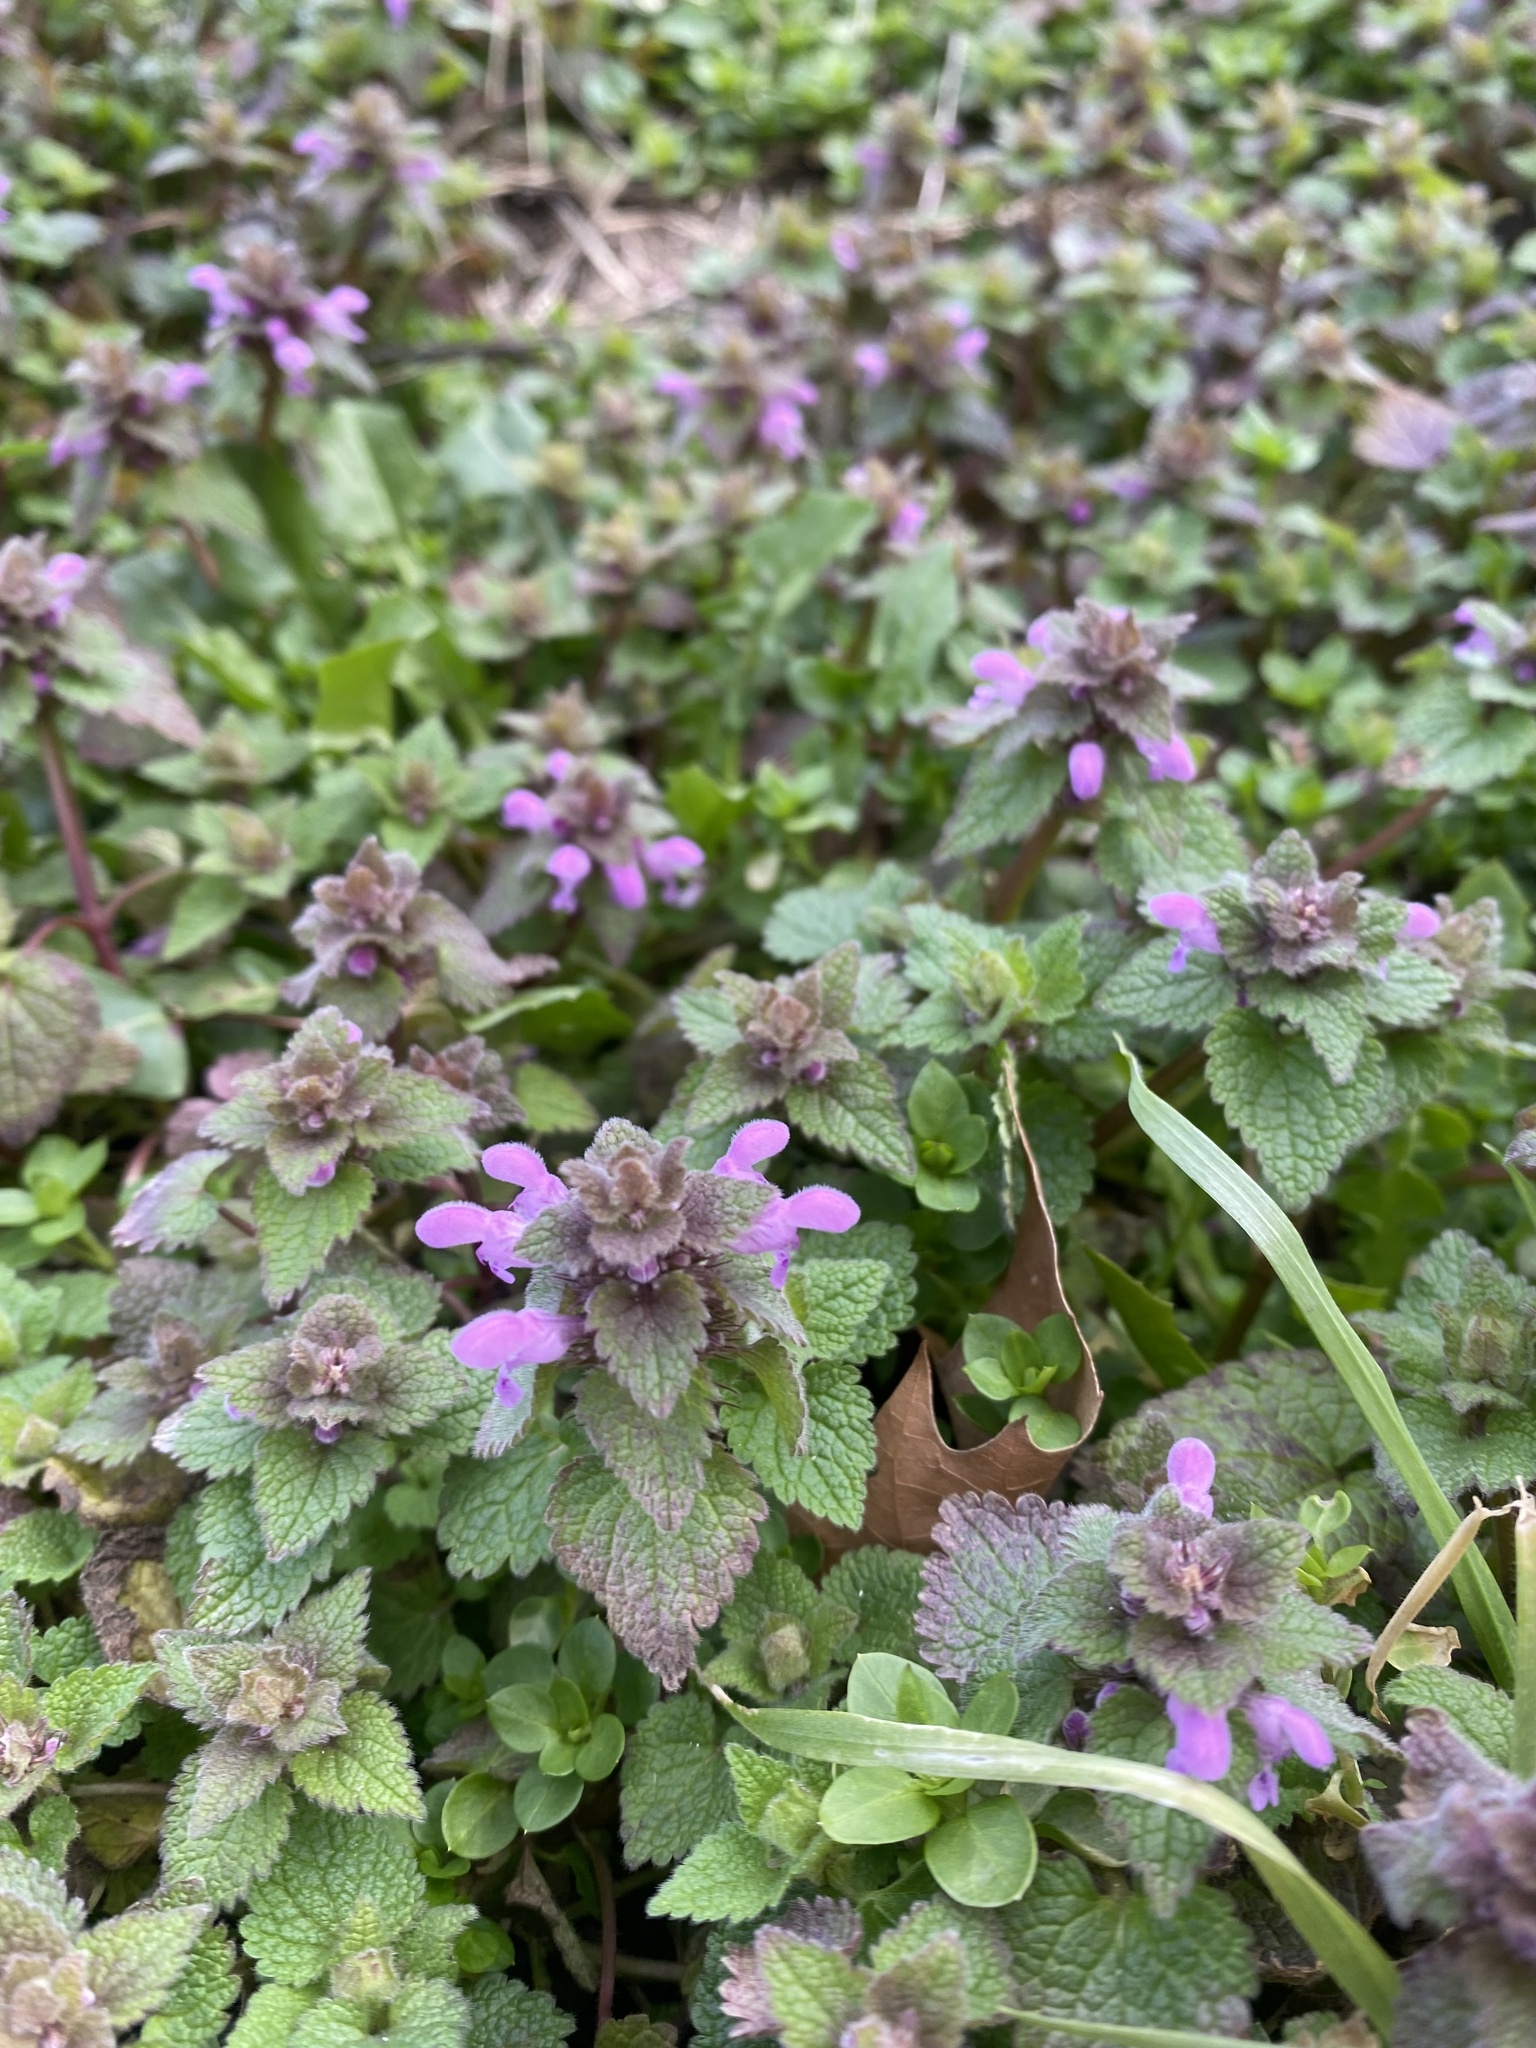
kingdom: Plantae
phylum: Tracheophyta
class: Magnoliopsida
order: Lamiales
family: Lamiaceae
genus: Lamium
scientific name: Lamium purpureum
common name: Red dead-nettle
